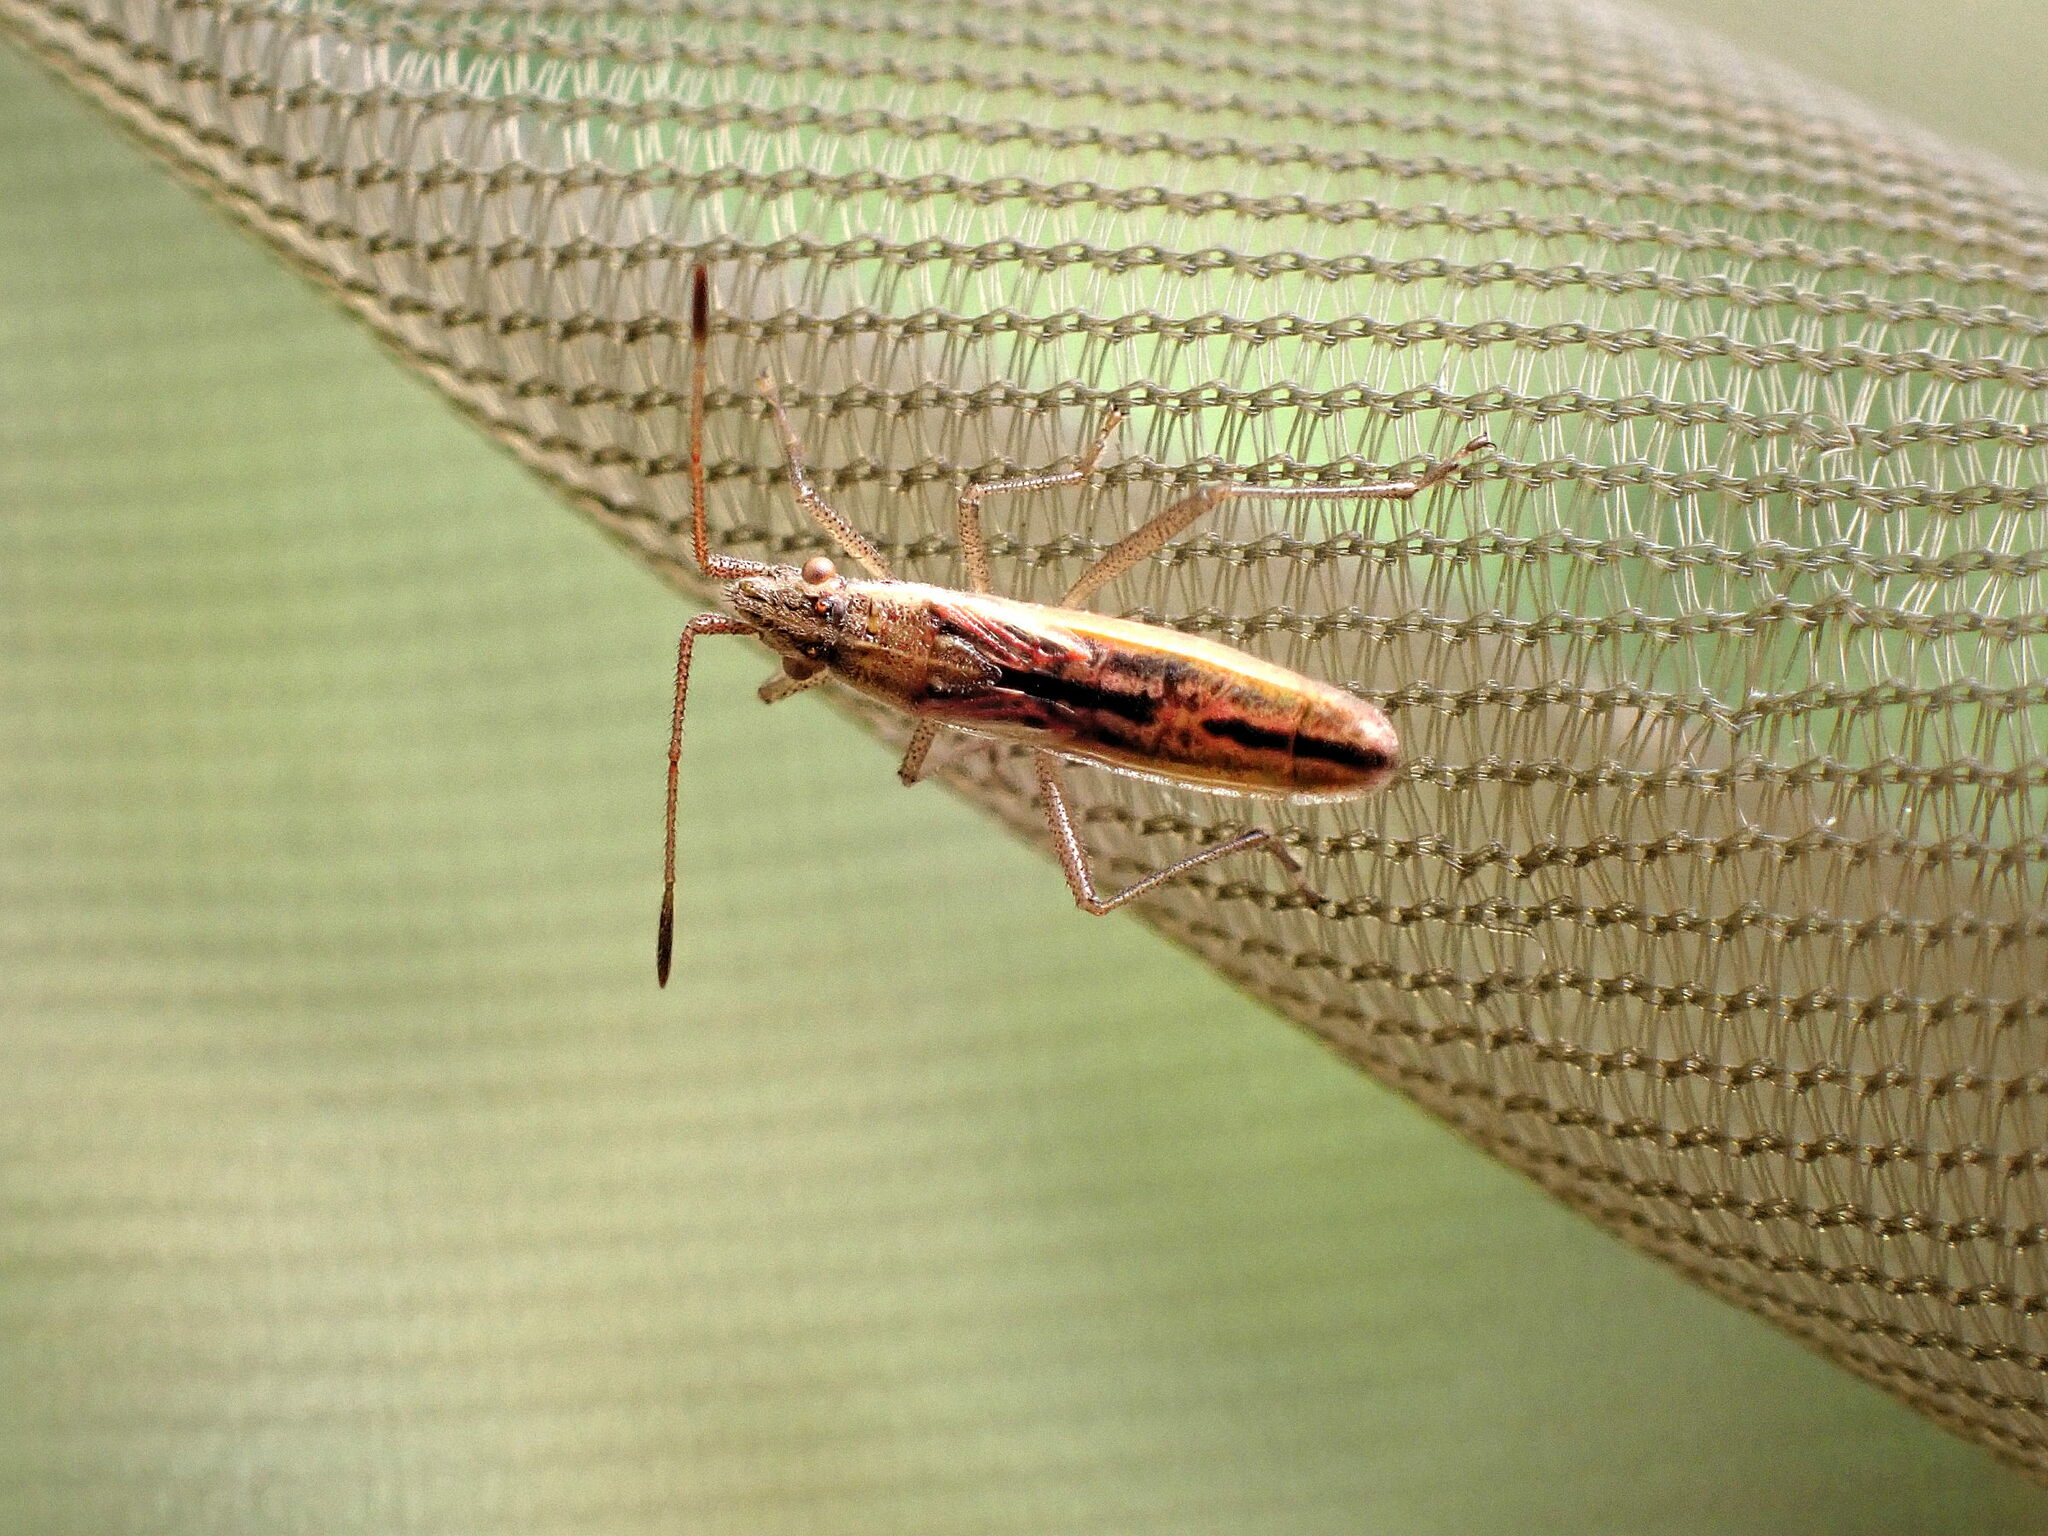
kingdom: Animalia
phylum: Arthropoda
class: Insecta
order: Hemiptera
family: Rhopalidae
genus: Myrmus
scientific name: Myrmus miriformis
